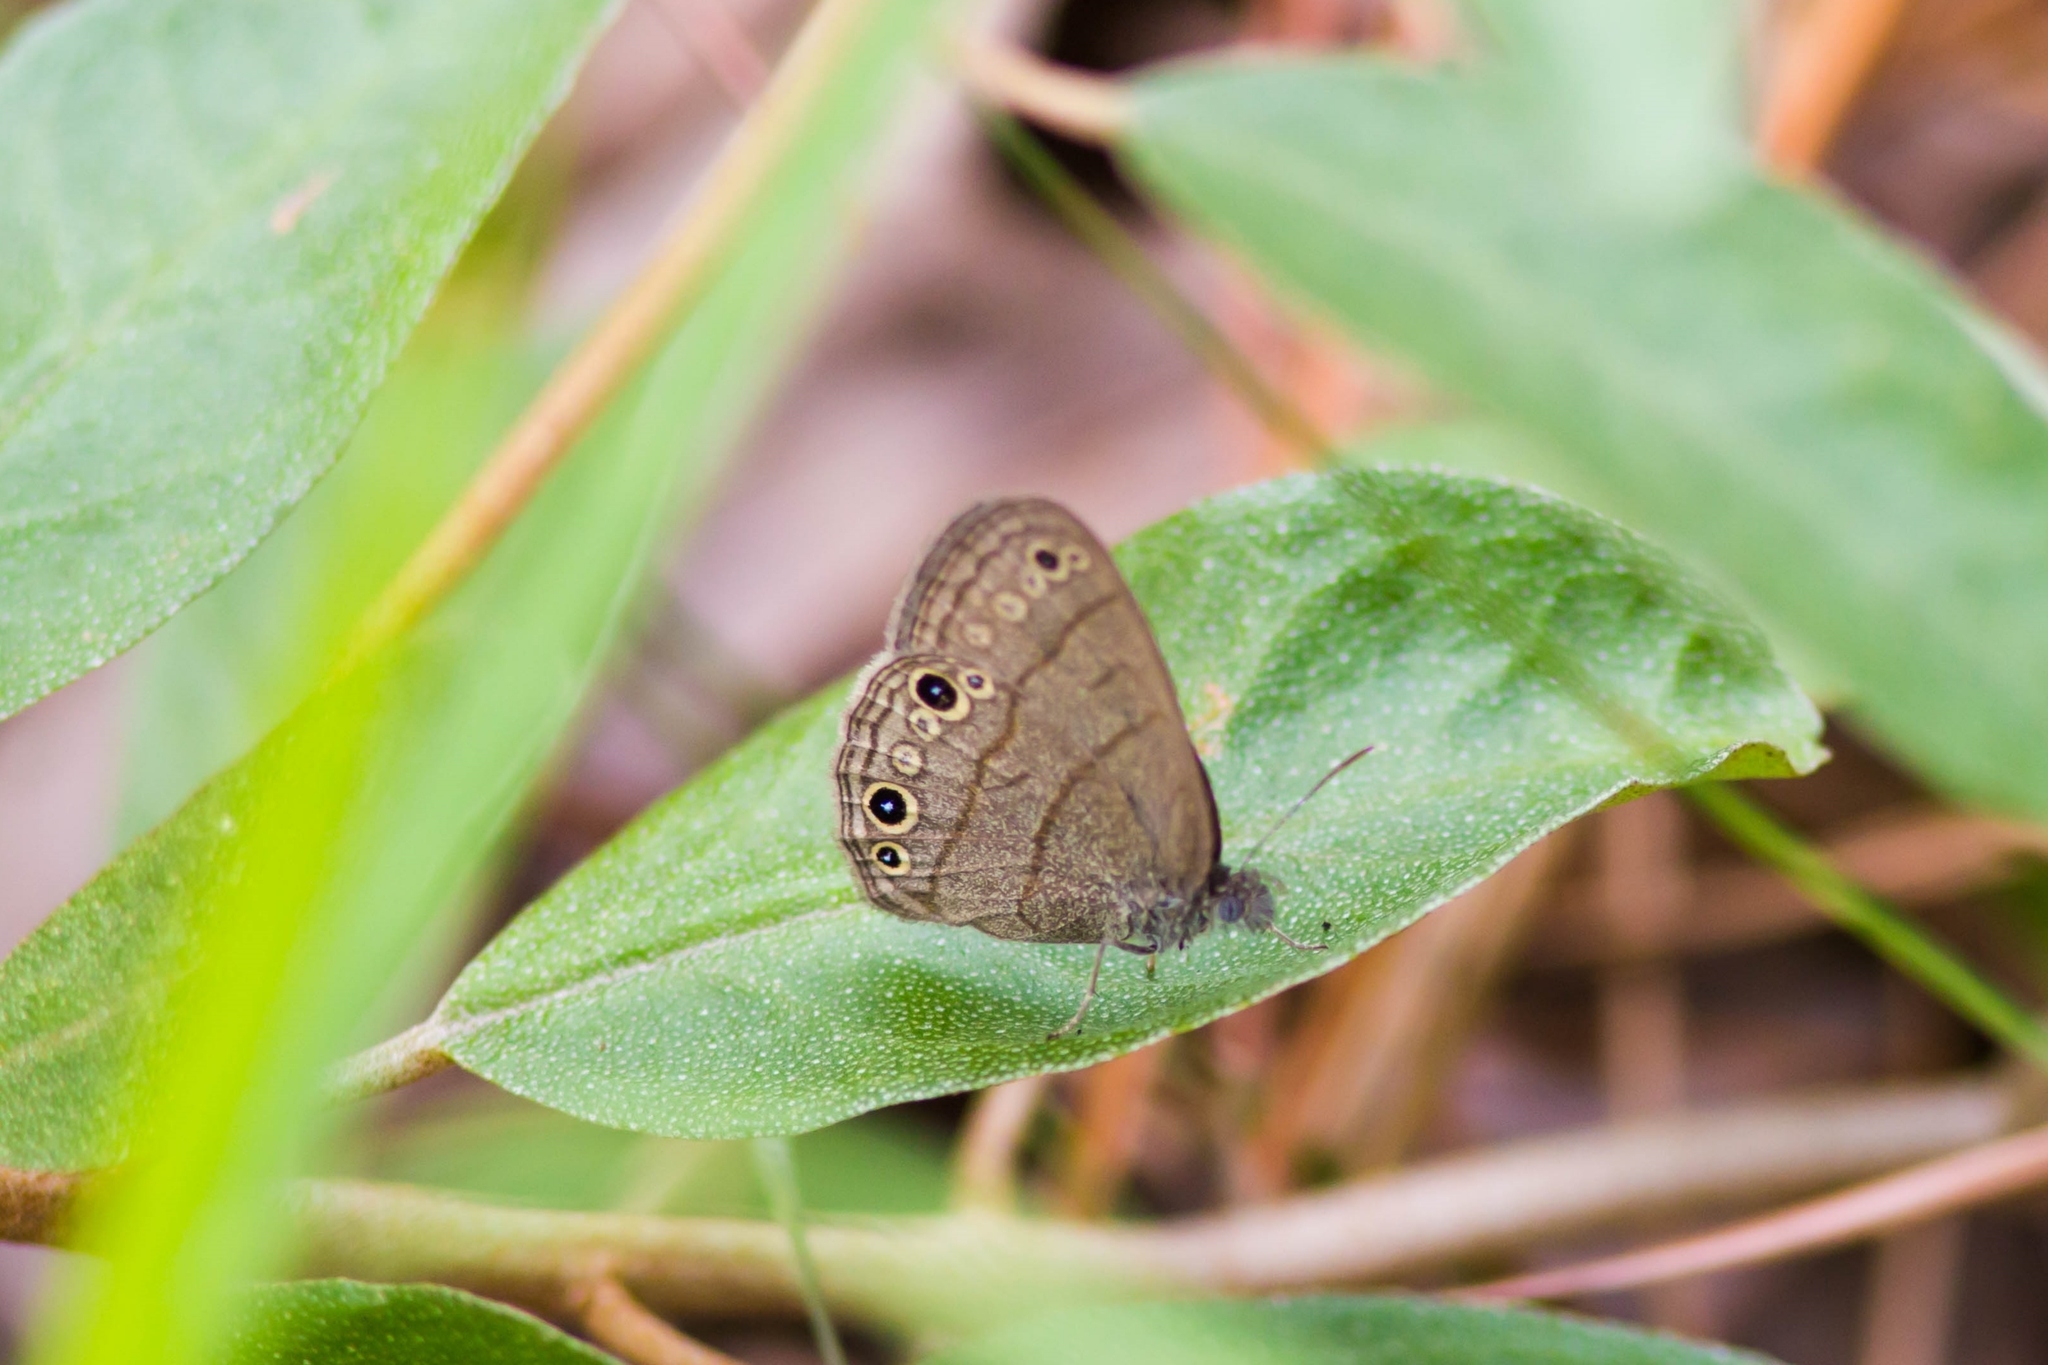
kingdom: Animalia
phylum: Arthropoda
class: Insecta
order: Lepidoptera
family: Nymphalidae
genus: Hermeuptychia
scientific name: Hermeuptychia hermes
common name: Hermes satyr
